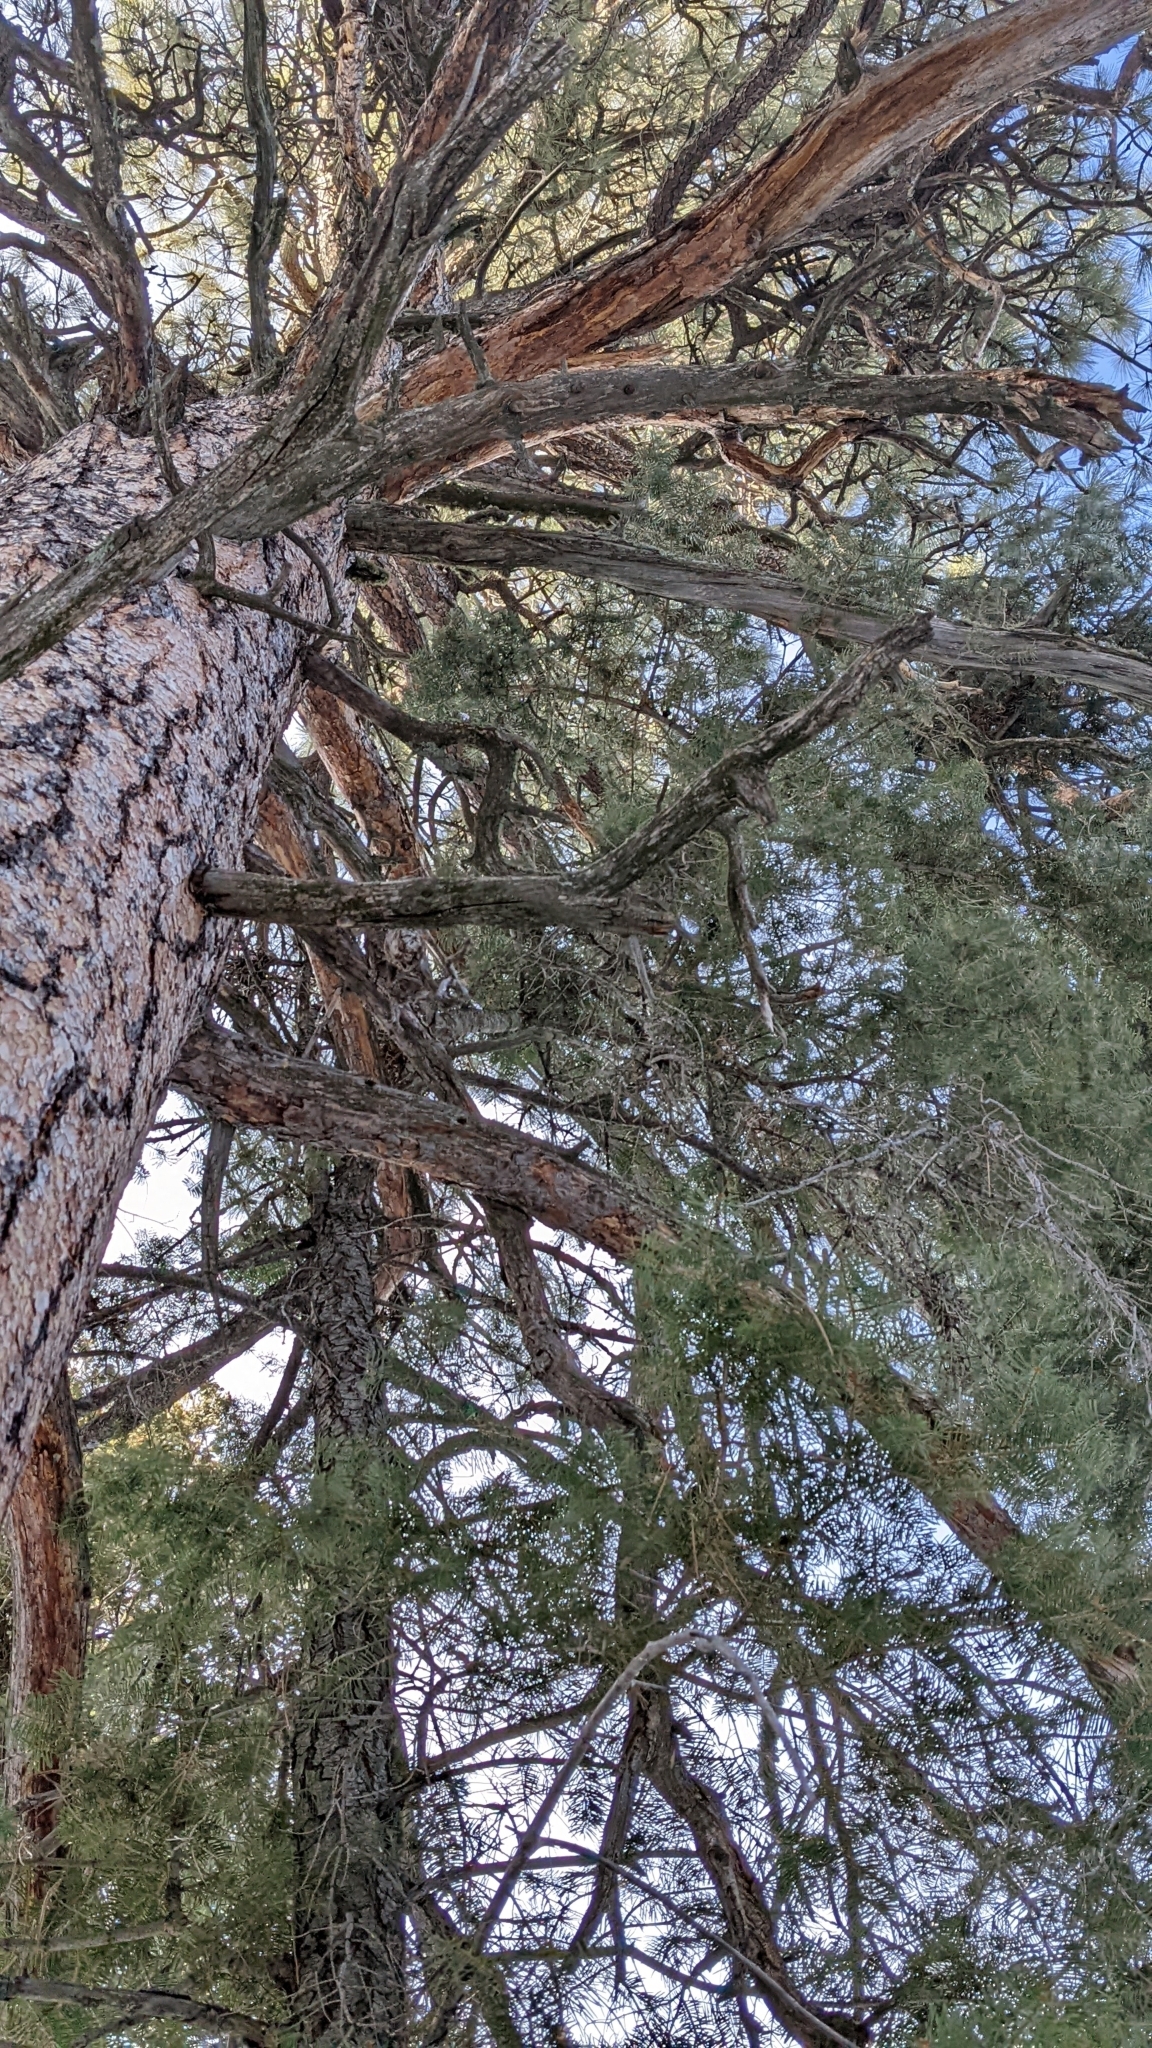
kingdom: Plantae
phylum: Tracheophyta
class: Pinopsida
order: Pinales
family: Pinaceae
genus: Pinus
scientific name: Pinus ponderosa
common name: Western yellow-pine
